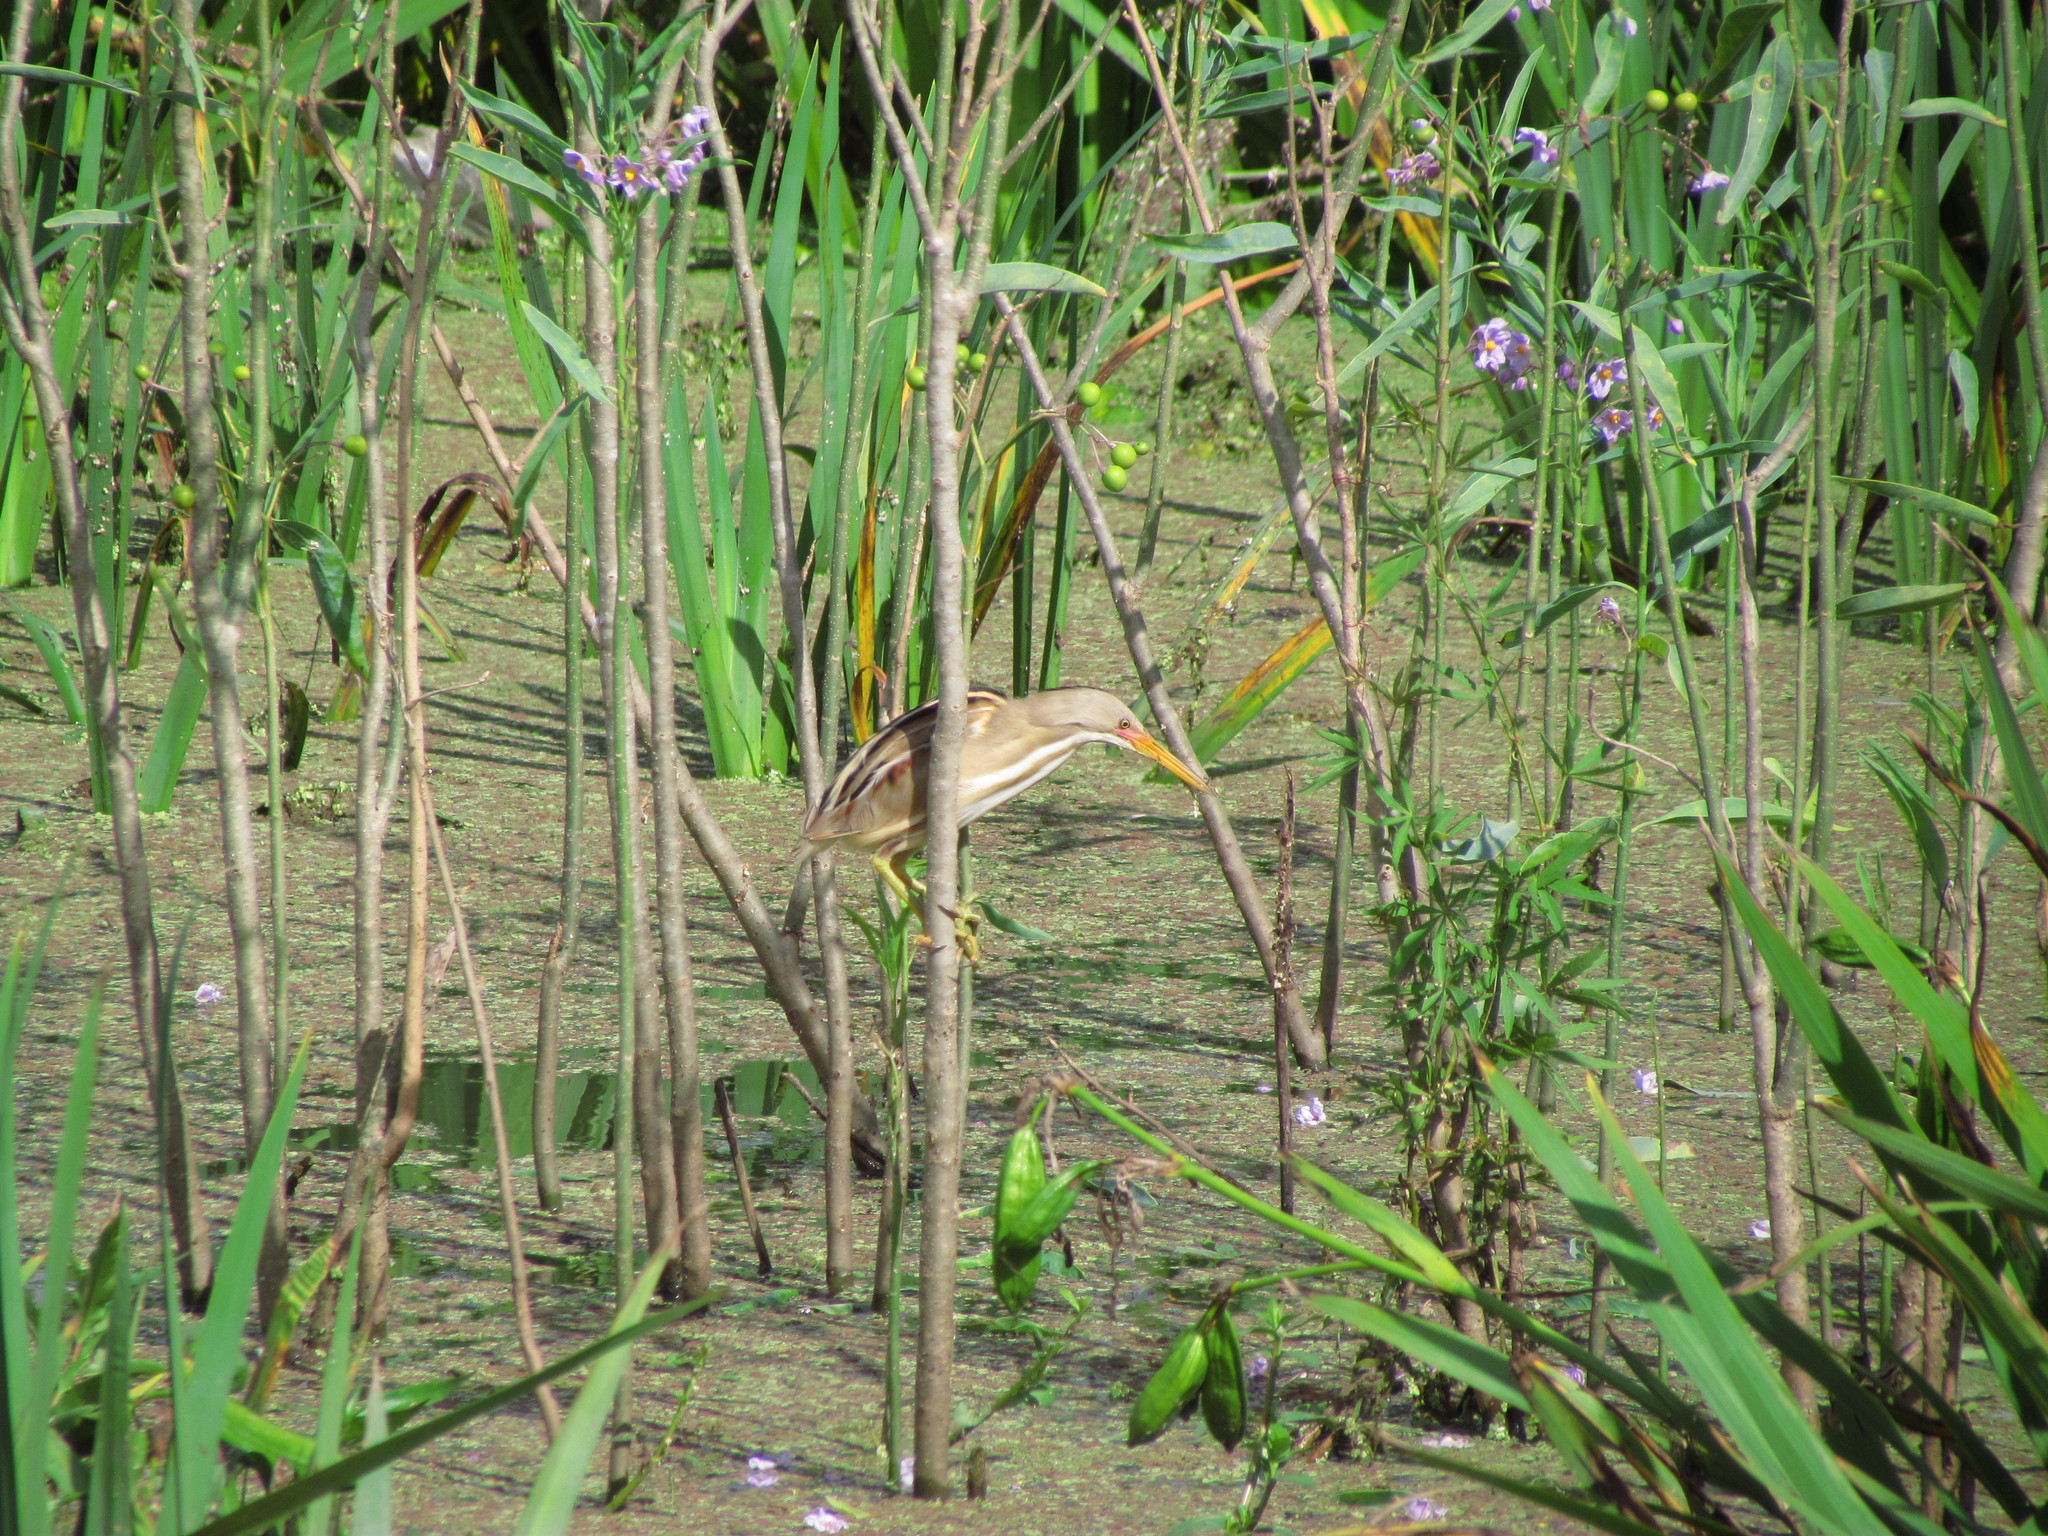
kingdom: Animalia
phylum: Chordata
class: Aves
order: Pelecaniformes
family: Ardeidae
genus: Ixobrychus
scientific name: Ixobrychus involucris
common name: Stripe-backed bittern
